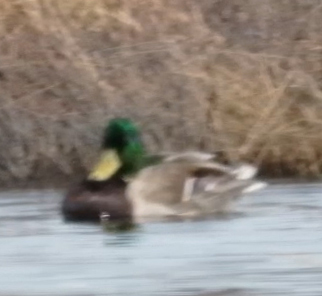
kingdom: Animalia
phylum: Chordata
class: Aves
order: Anseriformes
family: Anatidae
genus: Anas
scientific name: Anas platyrhynchos
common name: Mallard
